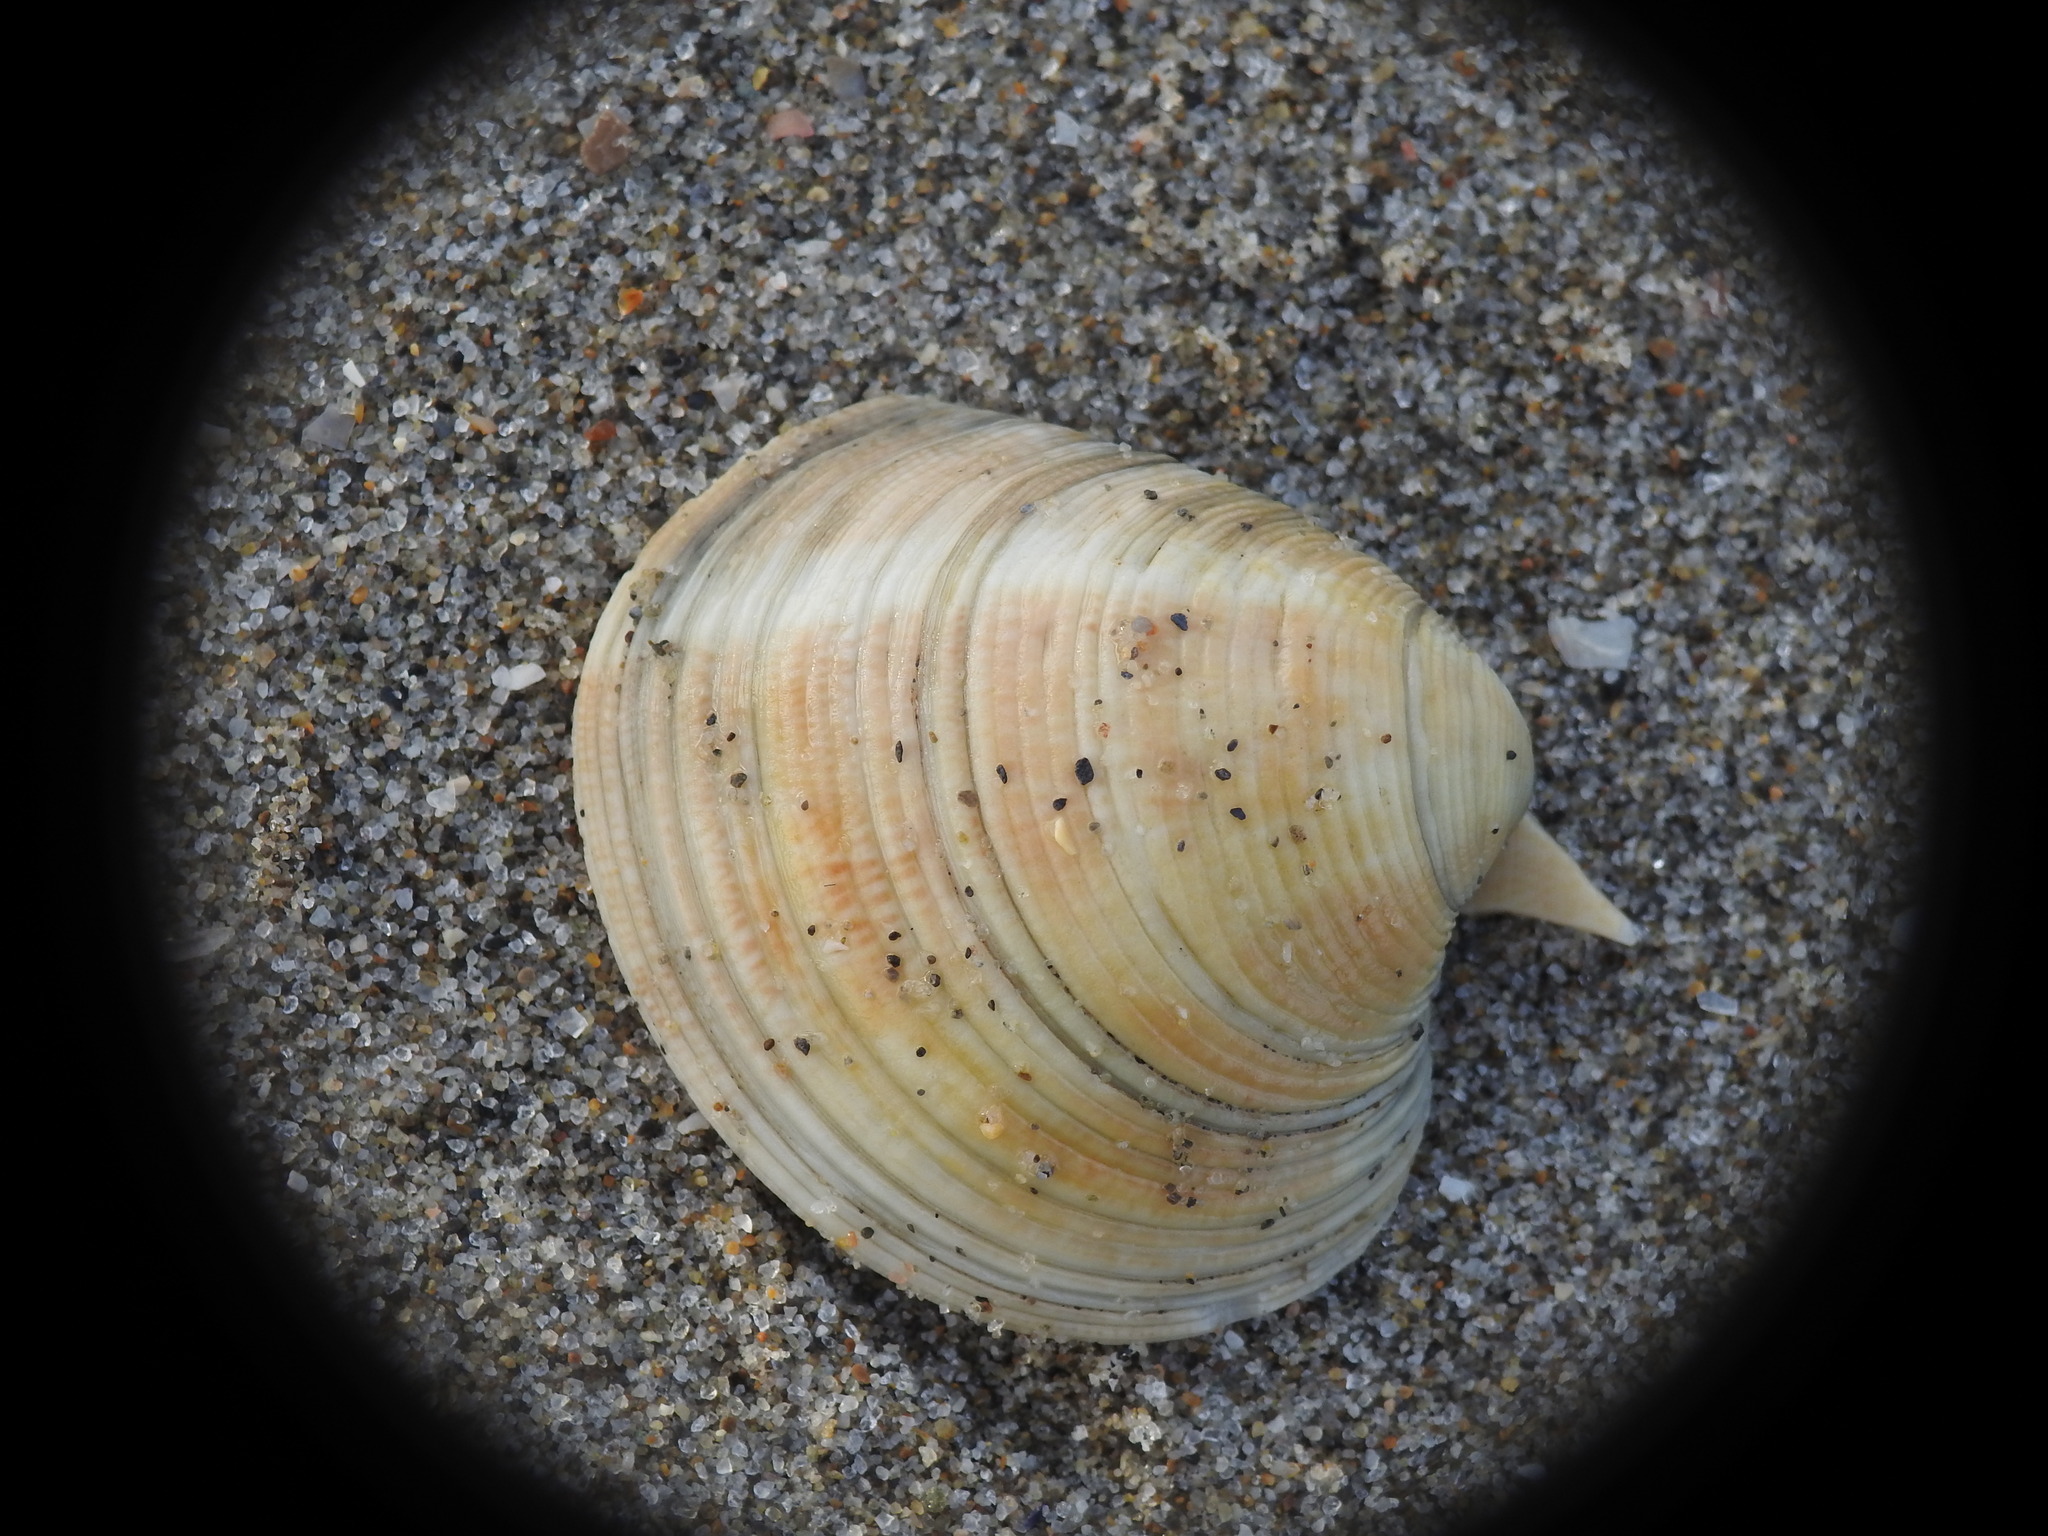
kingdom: Animalia
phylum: Mollusca
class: Bivalvia
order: Venerida
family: Veneridae
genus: Chamelea
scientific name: Chamelea gallina
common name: Chicken venus
